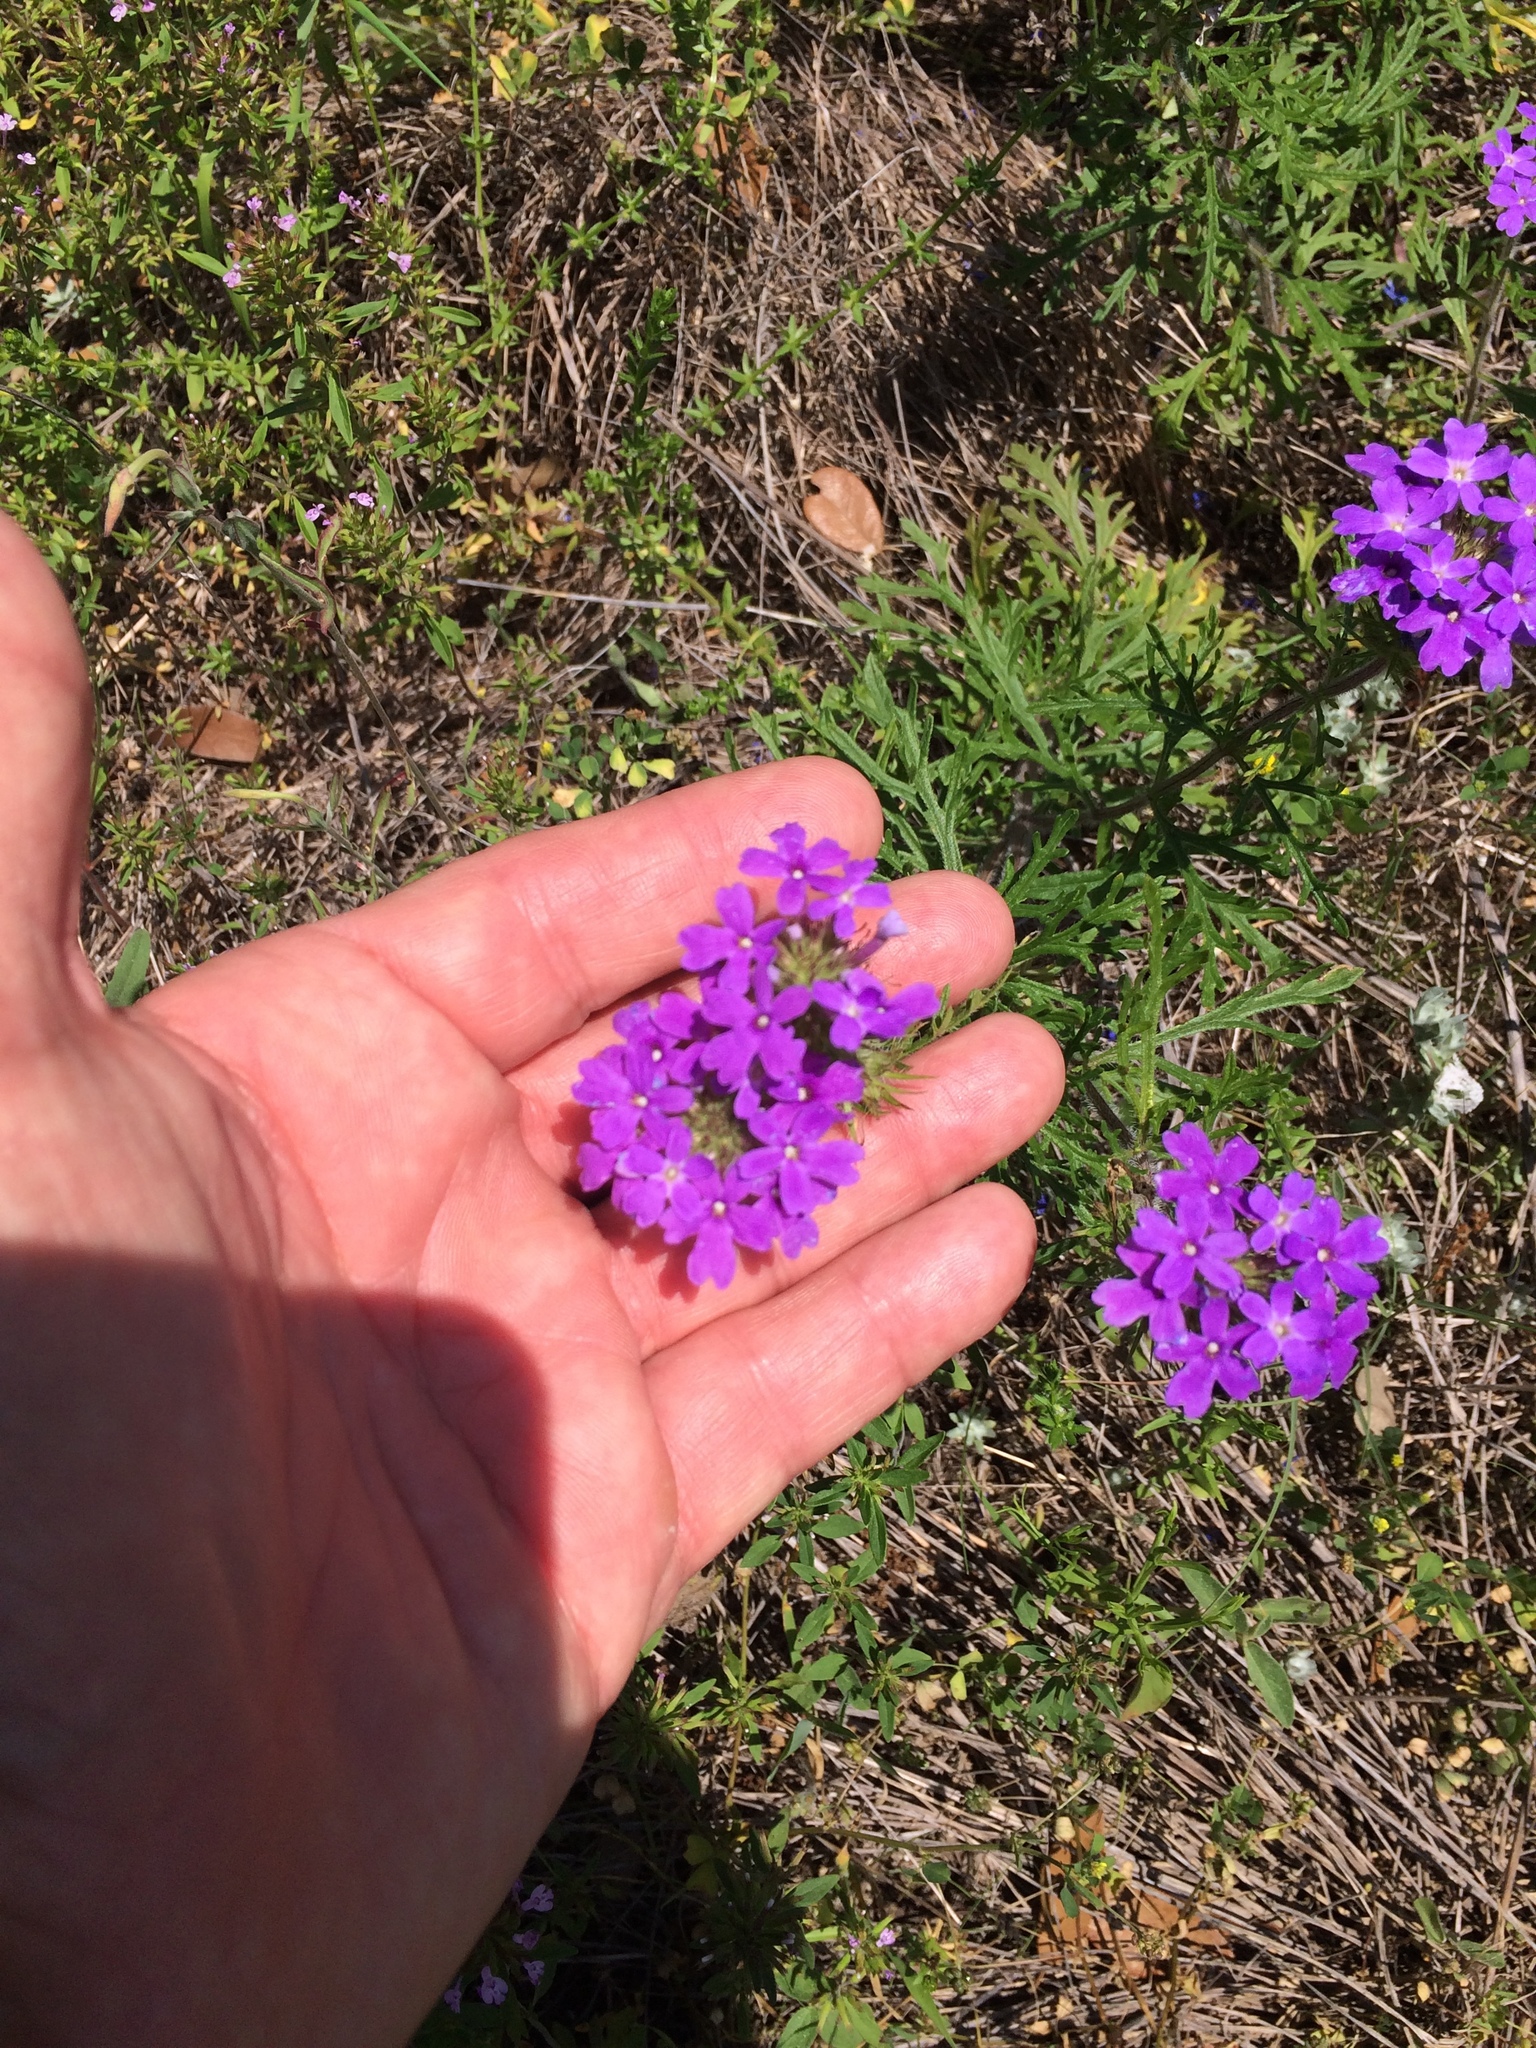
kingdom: Plantae
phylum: Tracheophyta
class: Magnoliopsida
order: Lamiales
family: Verbenaceae
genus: Verbena
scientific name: Verbena bipinnatifida
